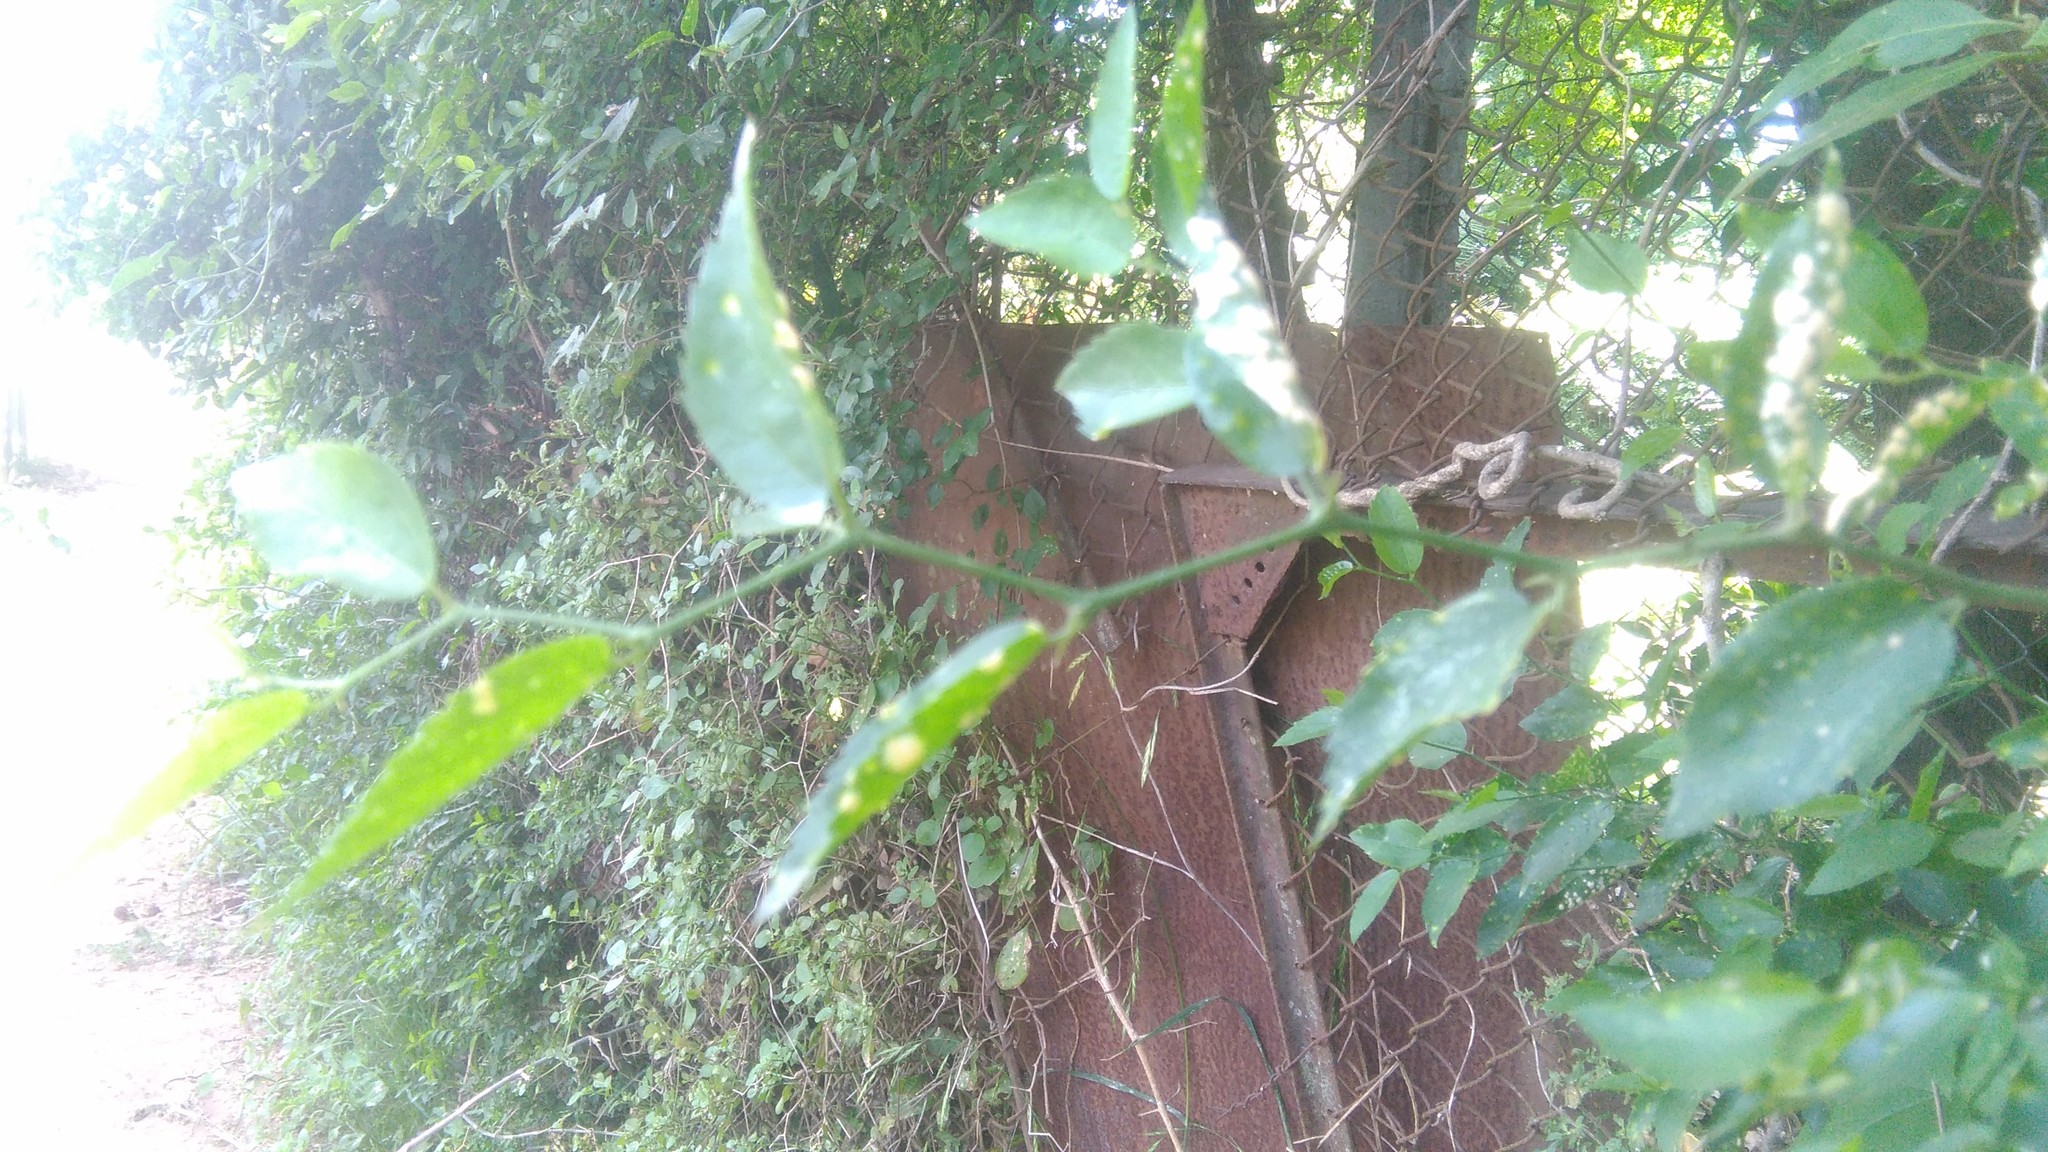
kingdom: Plantae
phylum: Tracheophyta
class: Magnoliopsida
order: Rosales
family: Cannabaceae
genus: Celtis
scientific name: Celtis tala
